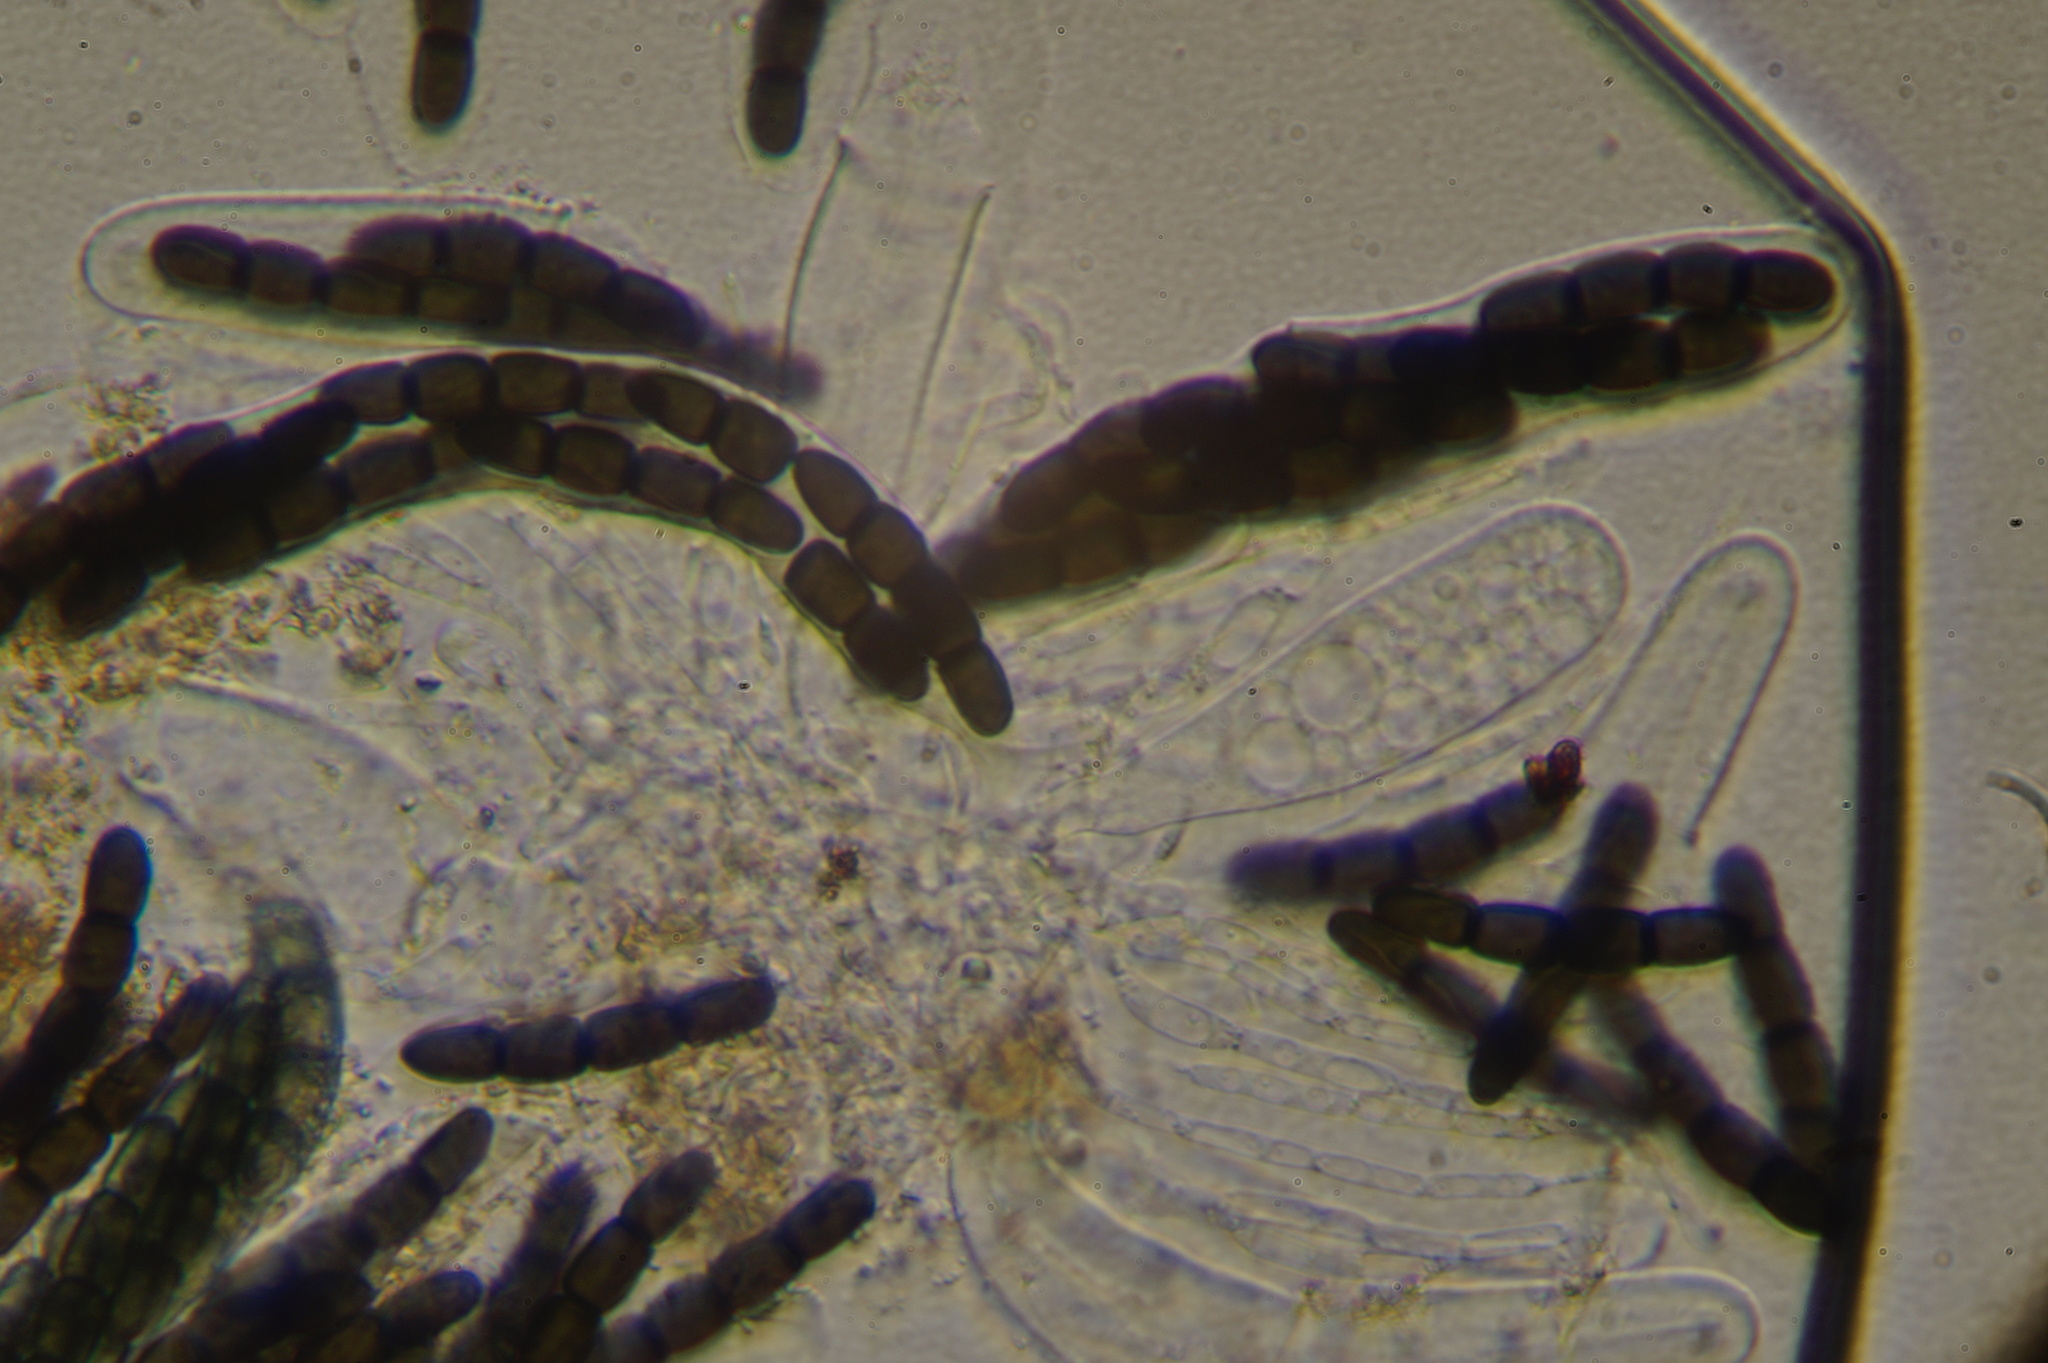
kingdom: Fungi
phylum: Ascomycota
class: Dothideomycetes
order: Pleosporales
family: Sporormiaceae
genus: Sporormiella
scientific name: Sporormiella australis
